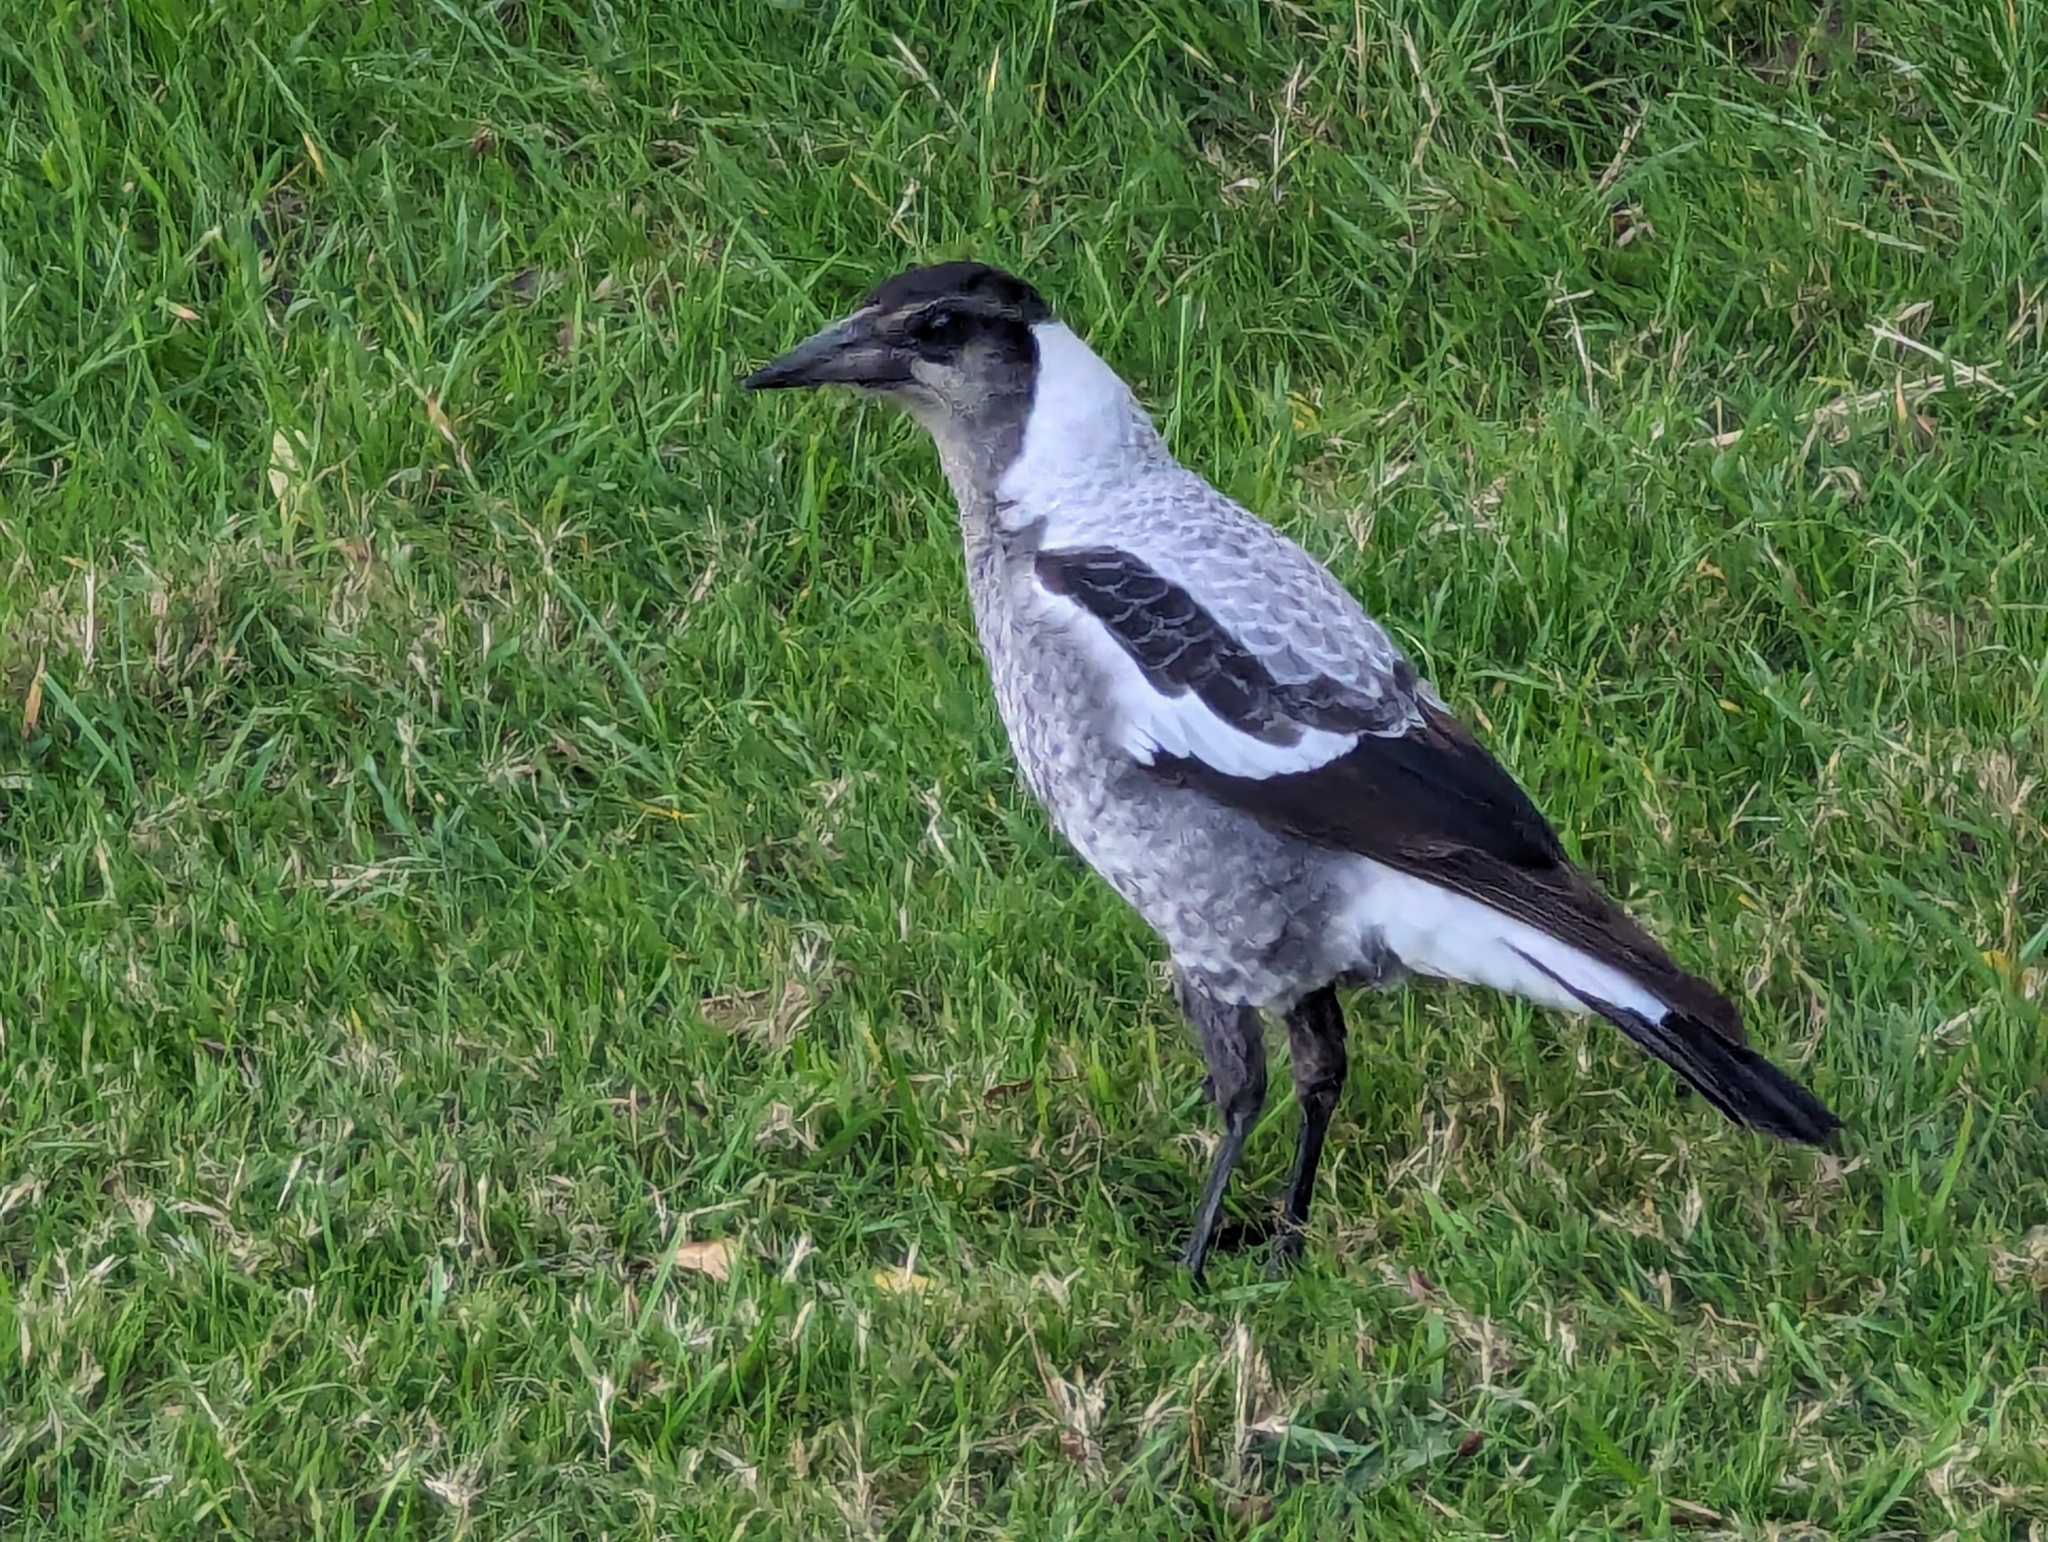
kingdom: Animalia
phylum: Chordata
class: Aves
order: Passeriformes
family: Cracticidae
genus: Gymnorhina
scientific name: Gymnorhina tibicen
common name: Australian magpie
